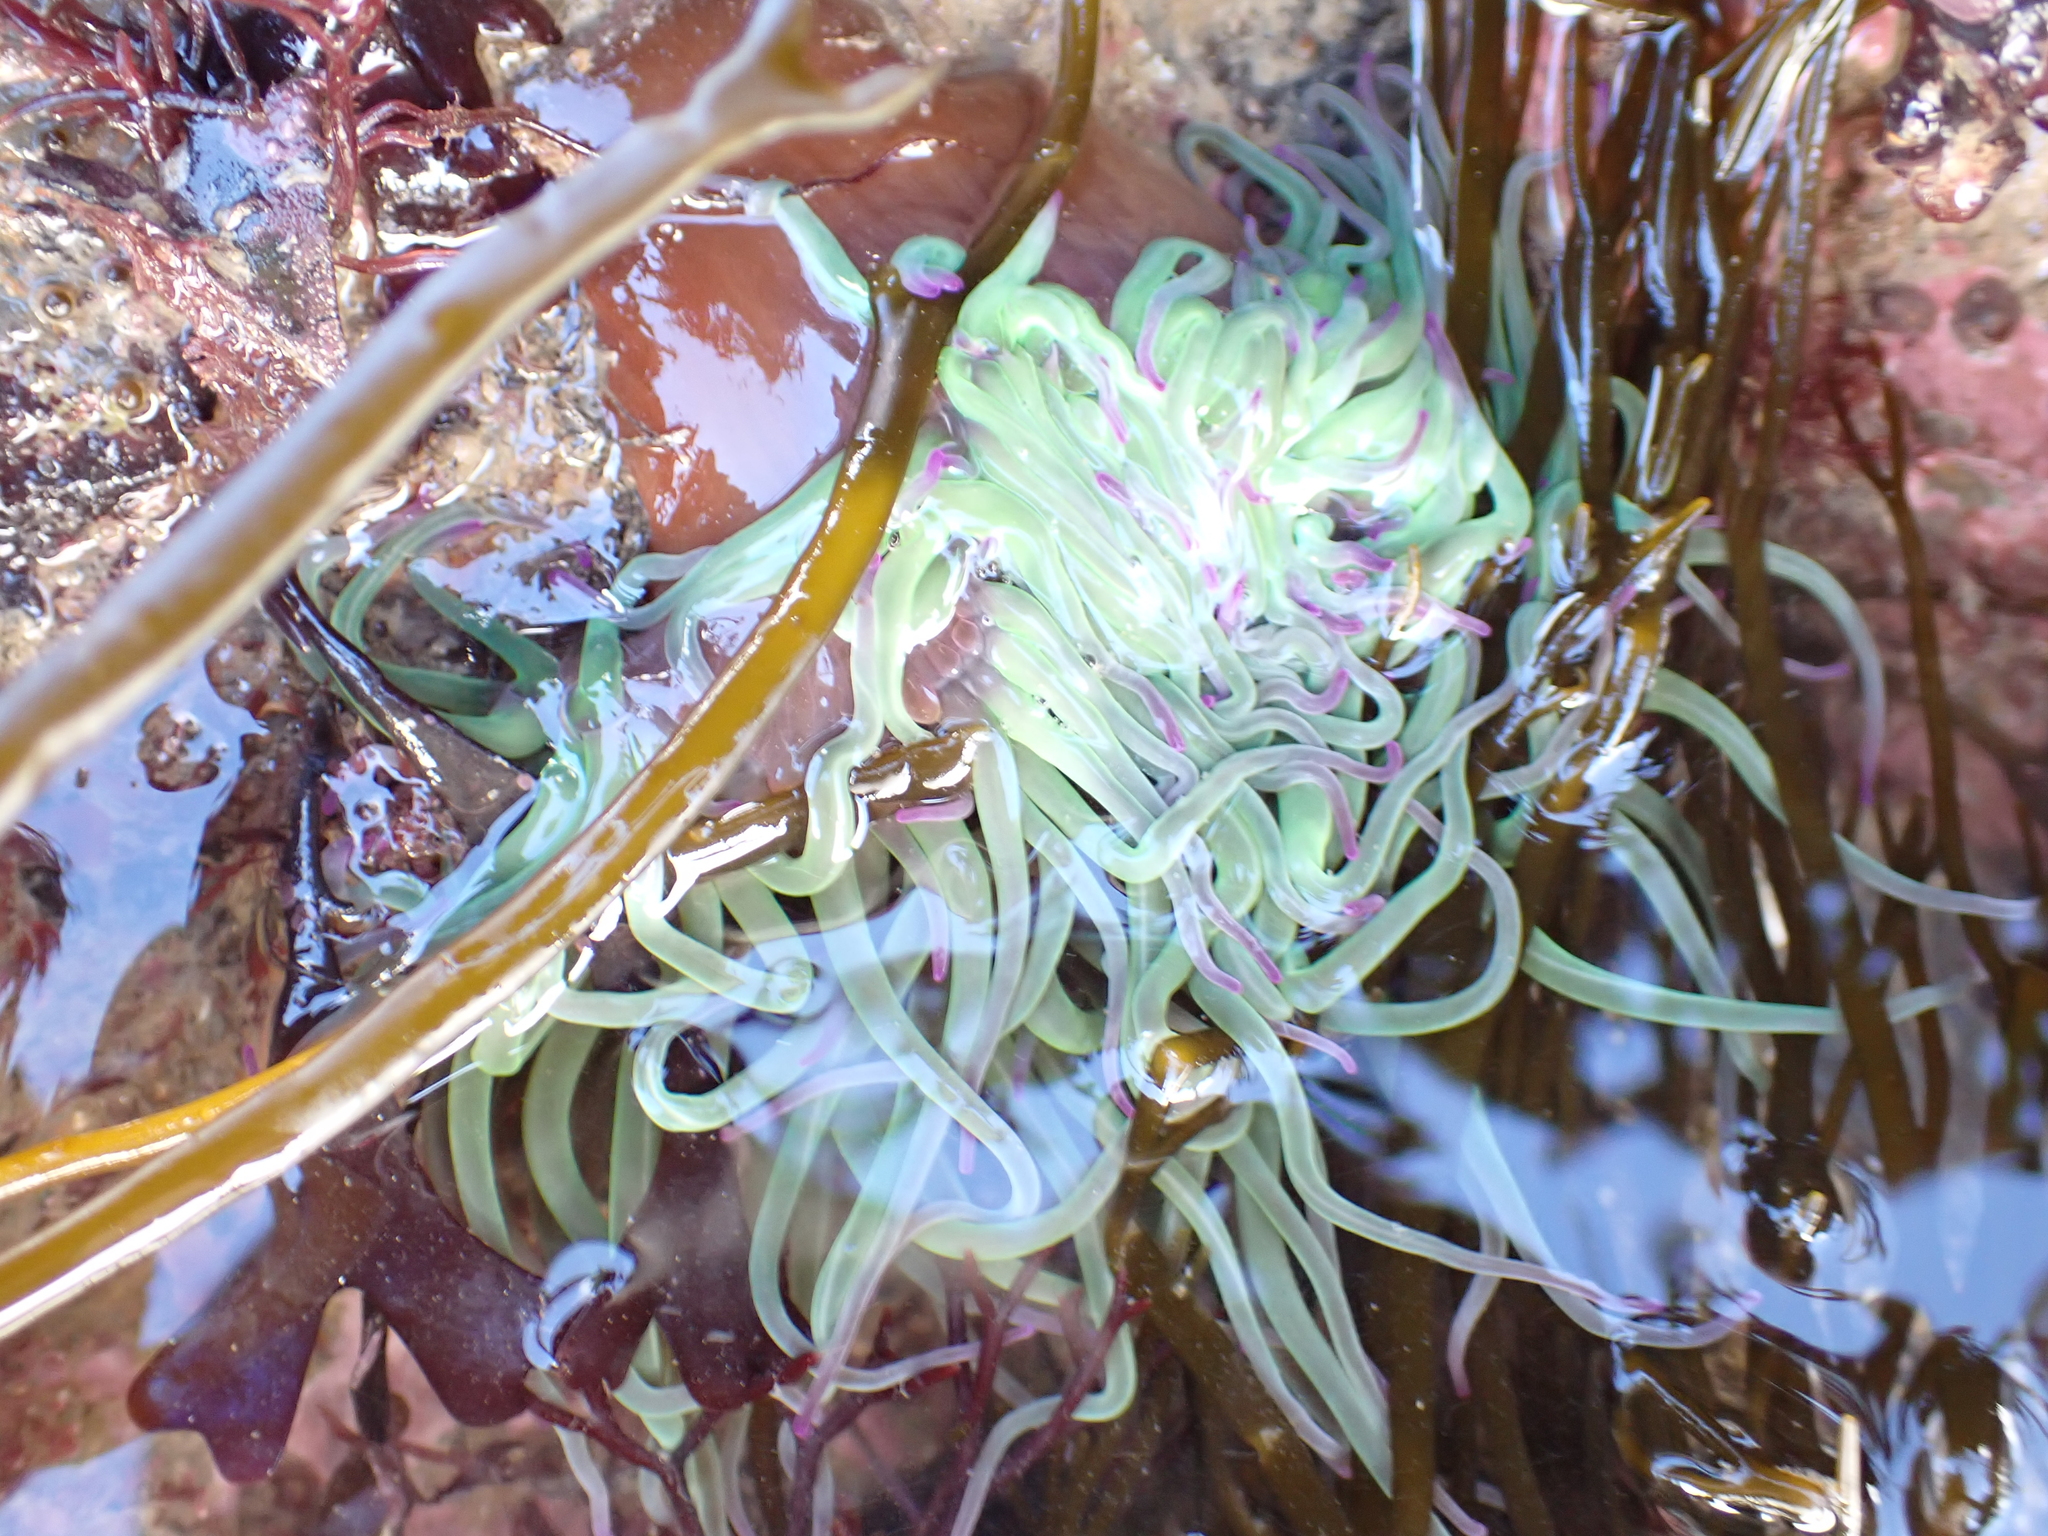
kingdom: Animalia
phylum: Cnidaria
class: Anthozoa
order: Actiniaria
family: Actiniidae
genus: Anemonia
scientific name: Anemonia viridis
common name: Snakelocks anemone
